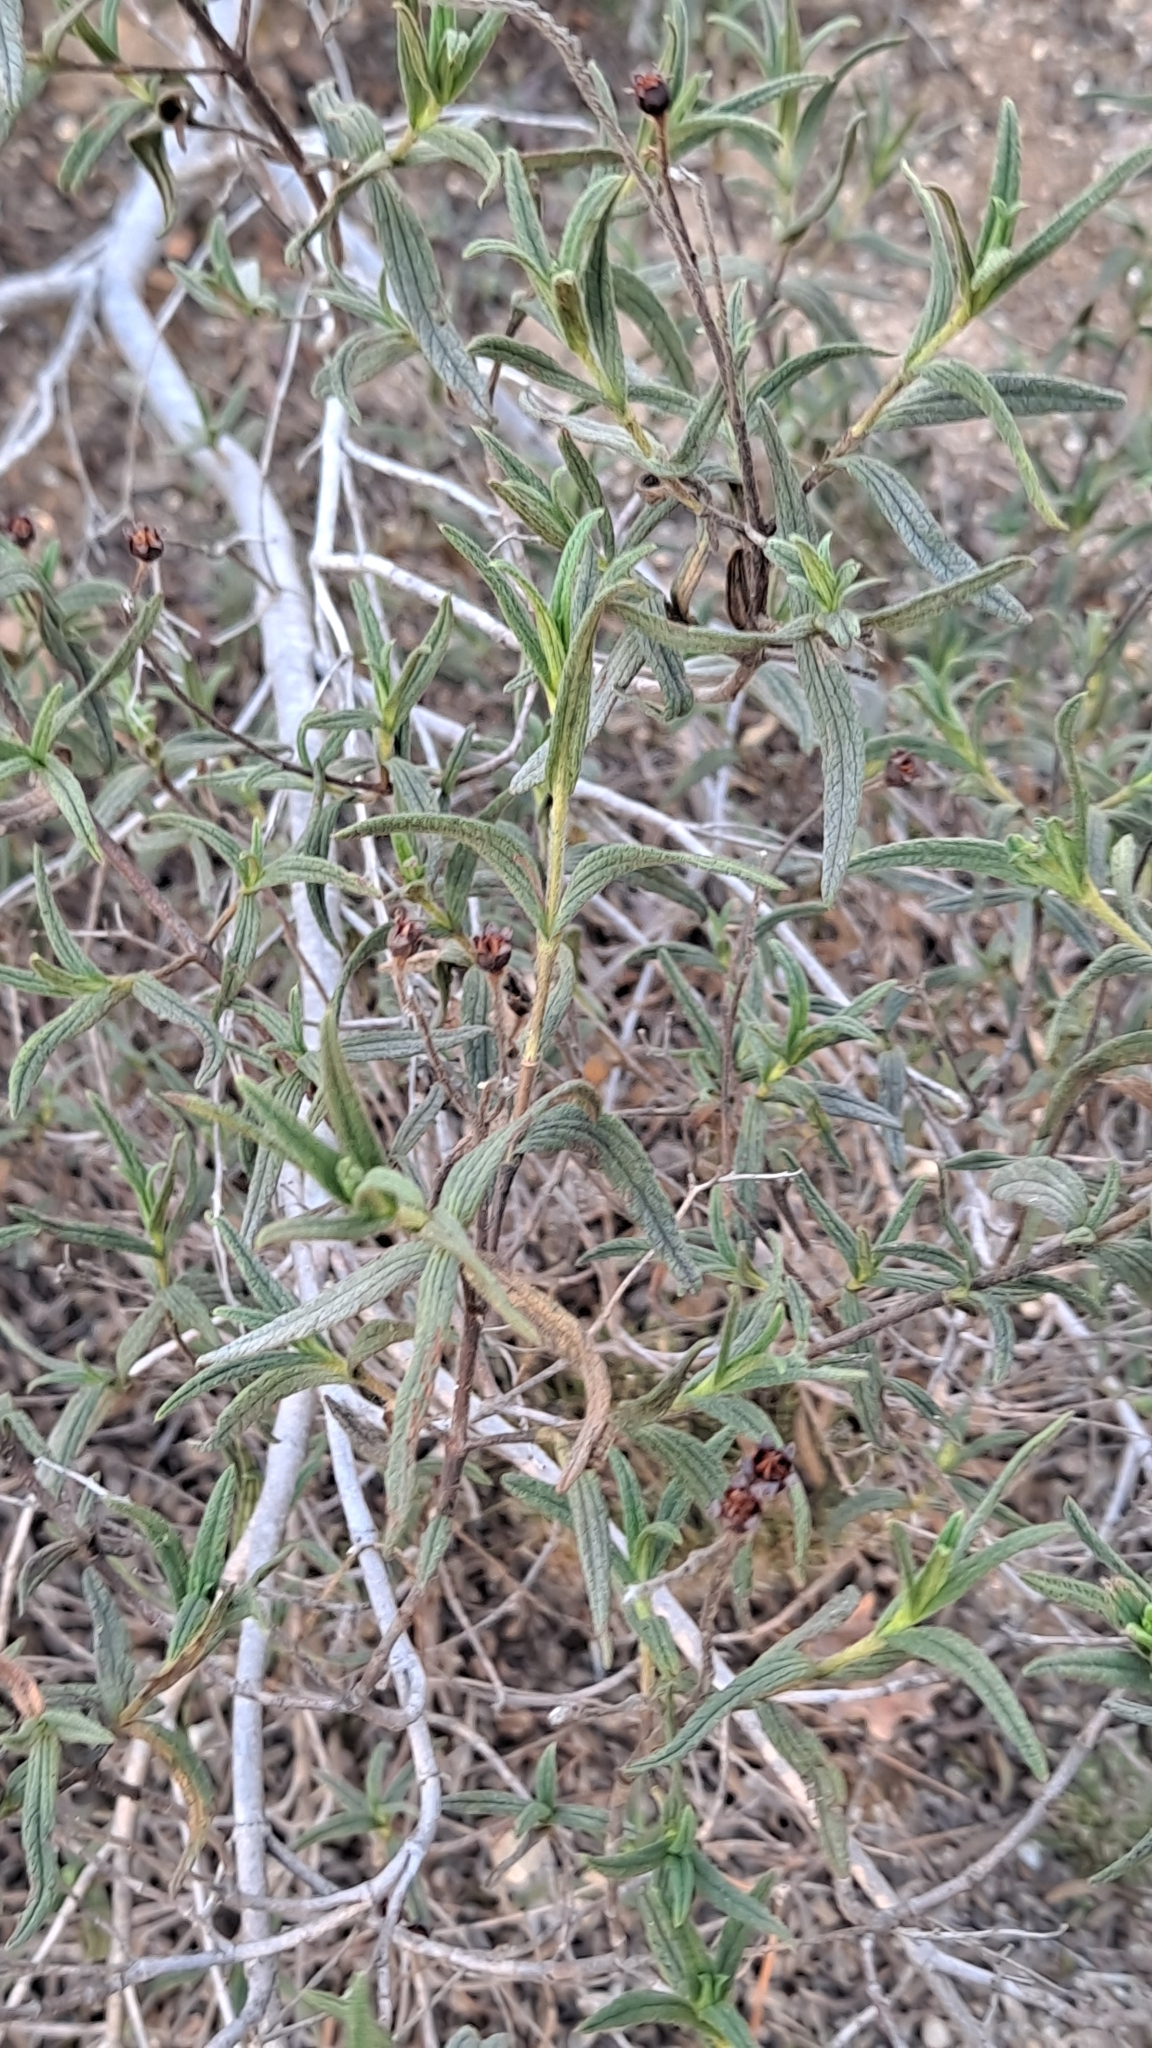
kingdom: Plantae
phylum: Tracheophyta
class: Magnoliopsida
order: Malvales
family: Cistaceae
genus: Cistus
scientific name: Cistus monspeliensis
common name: Montpelier cistus
